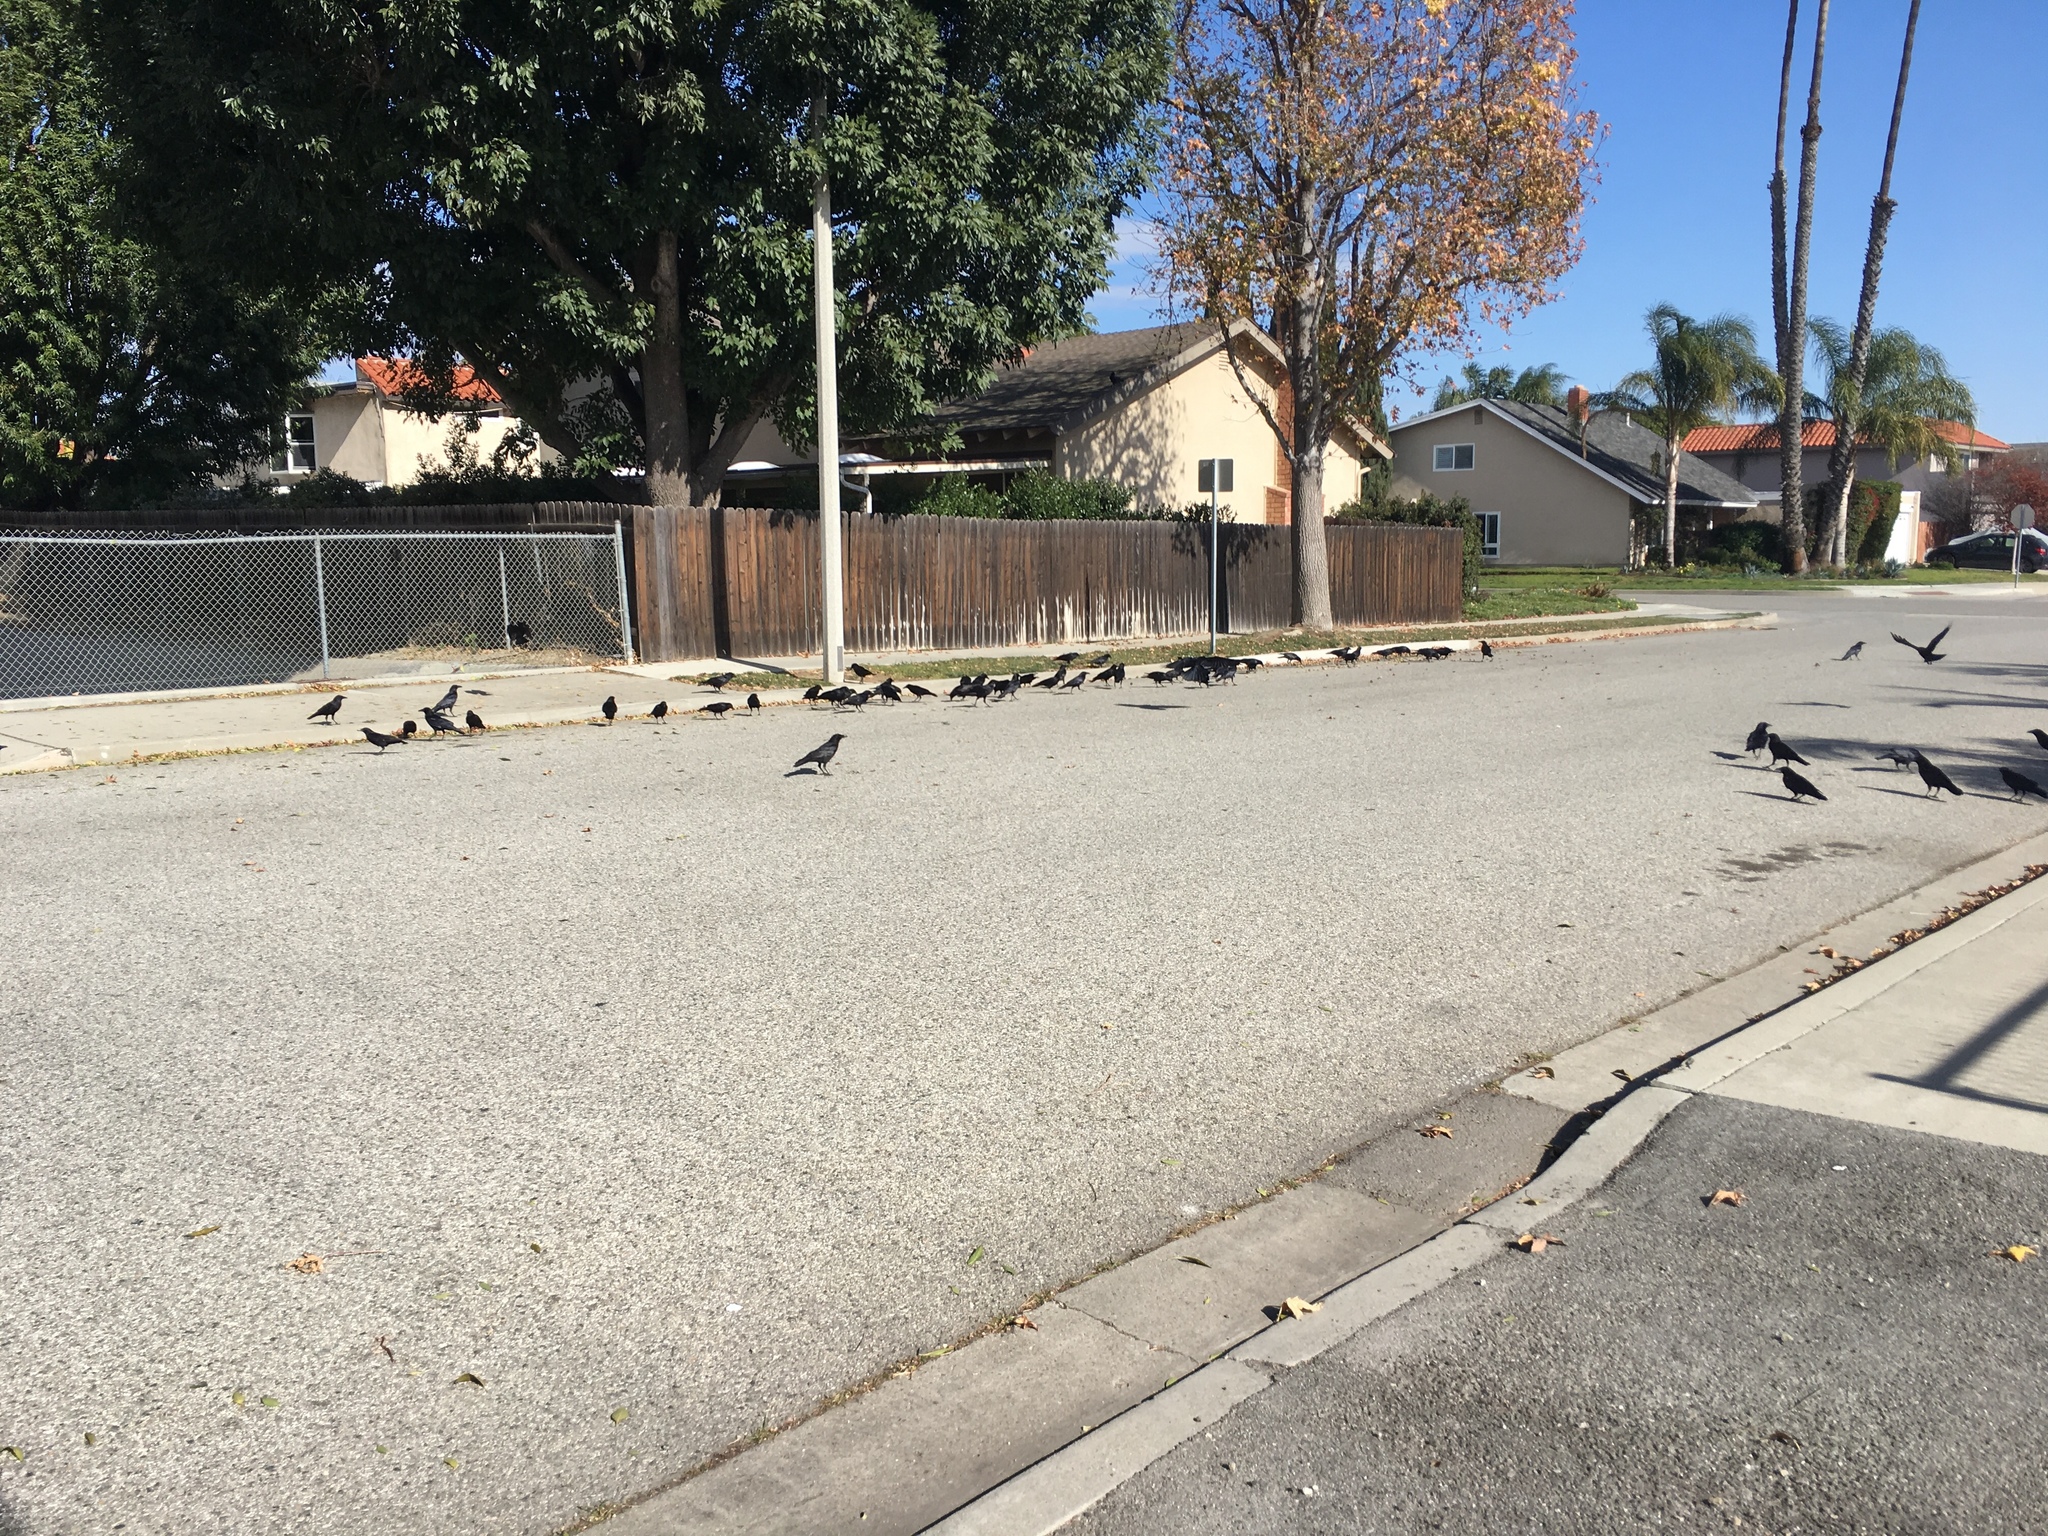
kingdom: Animalia
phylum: Chordata
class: Aves
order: Passeriformes
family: Corvidae
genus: Corvus
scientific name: Corvus brachyrhynchos
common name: American crow
